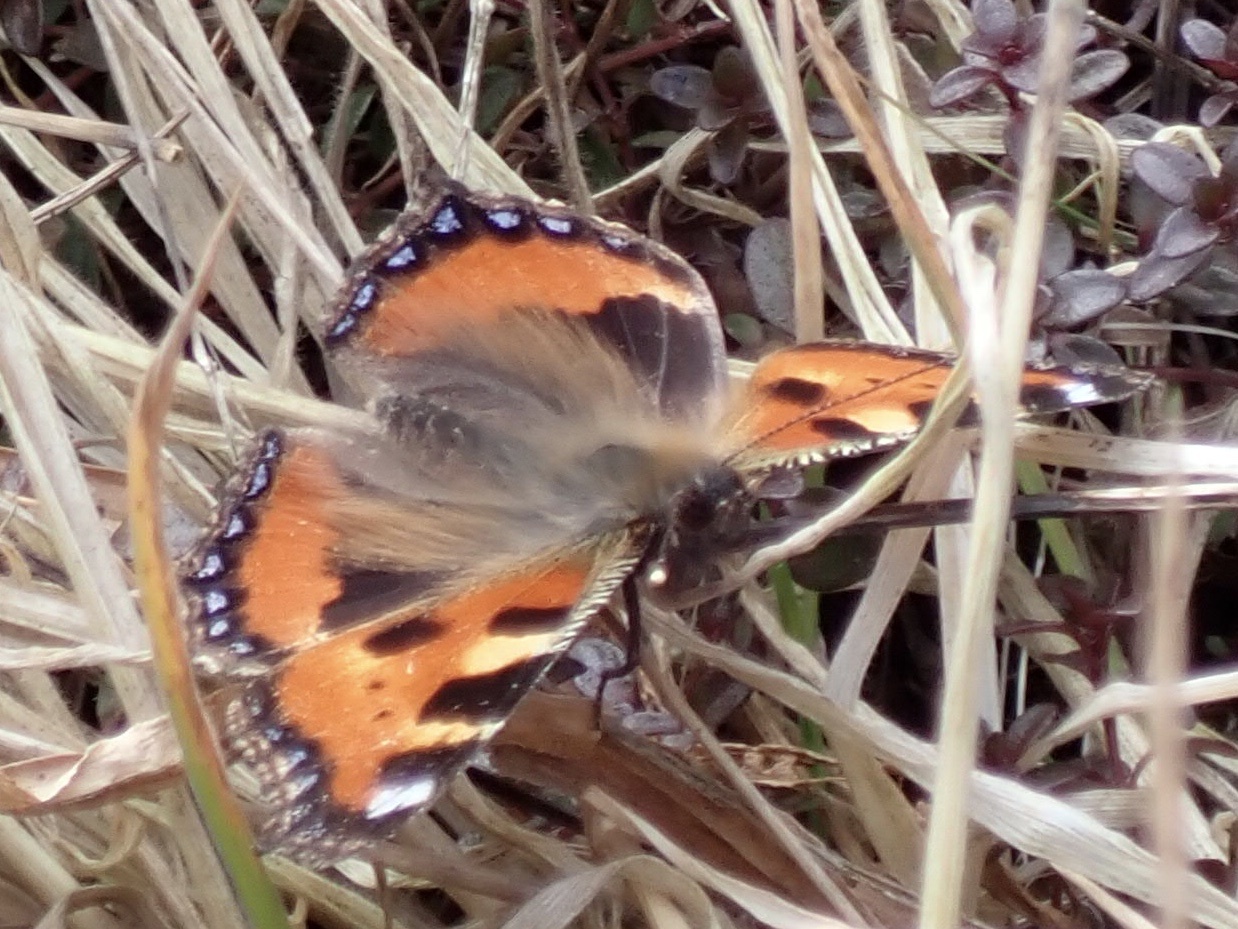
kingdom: Animalia
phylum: Arthropoda
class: Insecta
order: Lepidoptera
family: Nymphalidae
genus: Aglais
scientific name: Aglais urticae
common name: Small tortoiseshell
